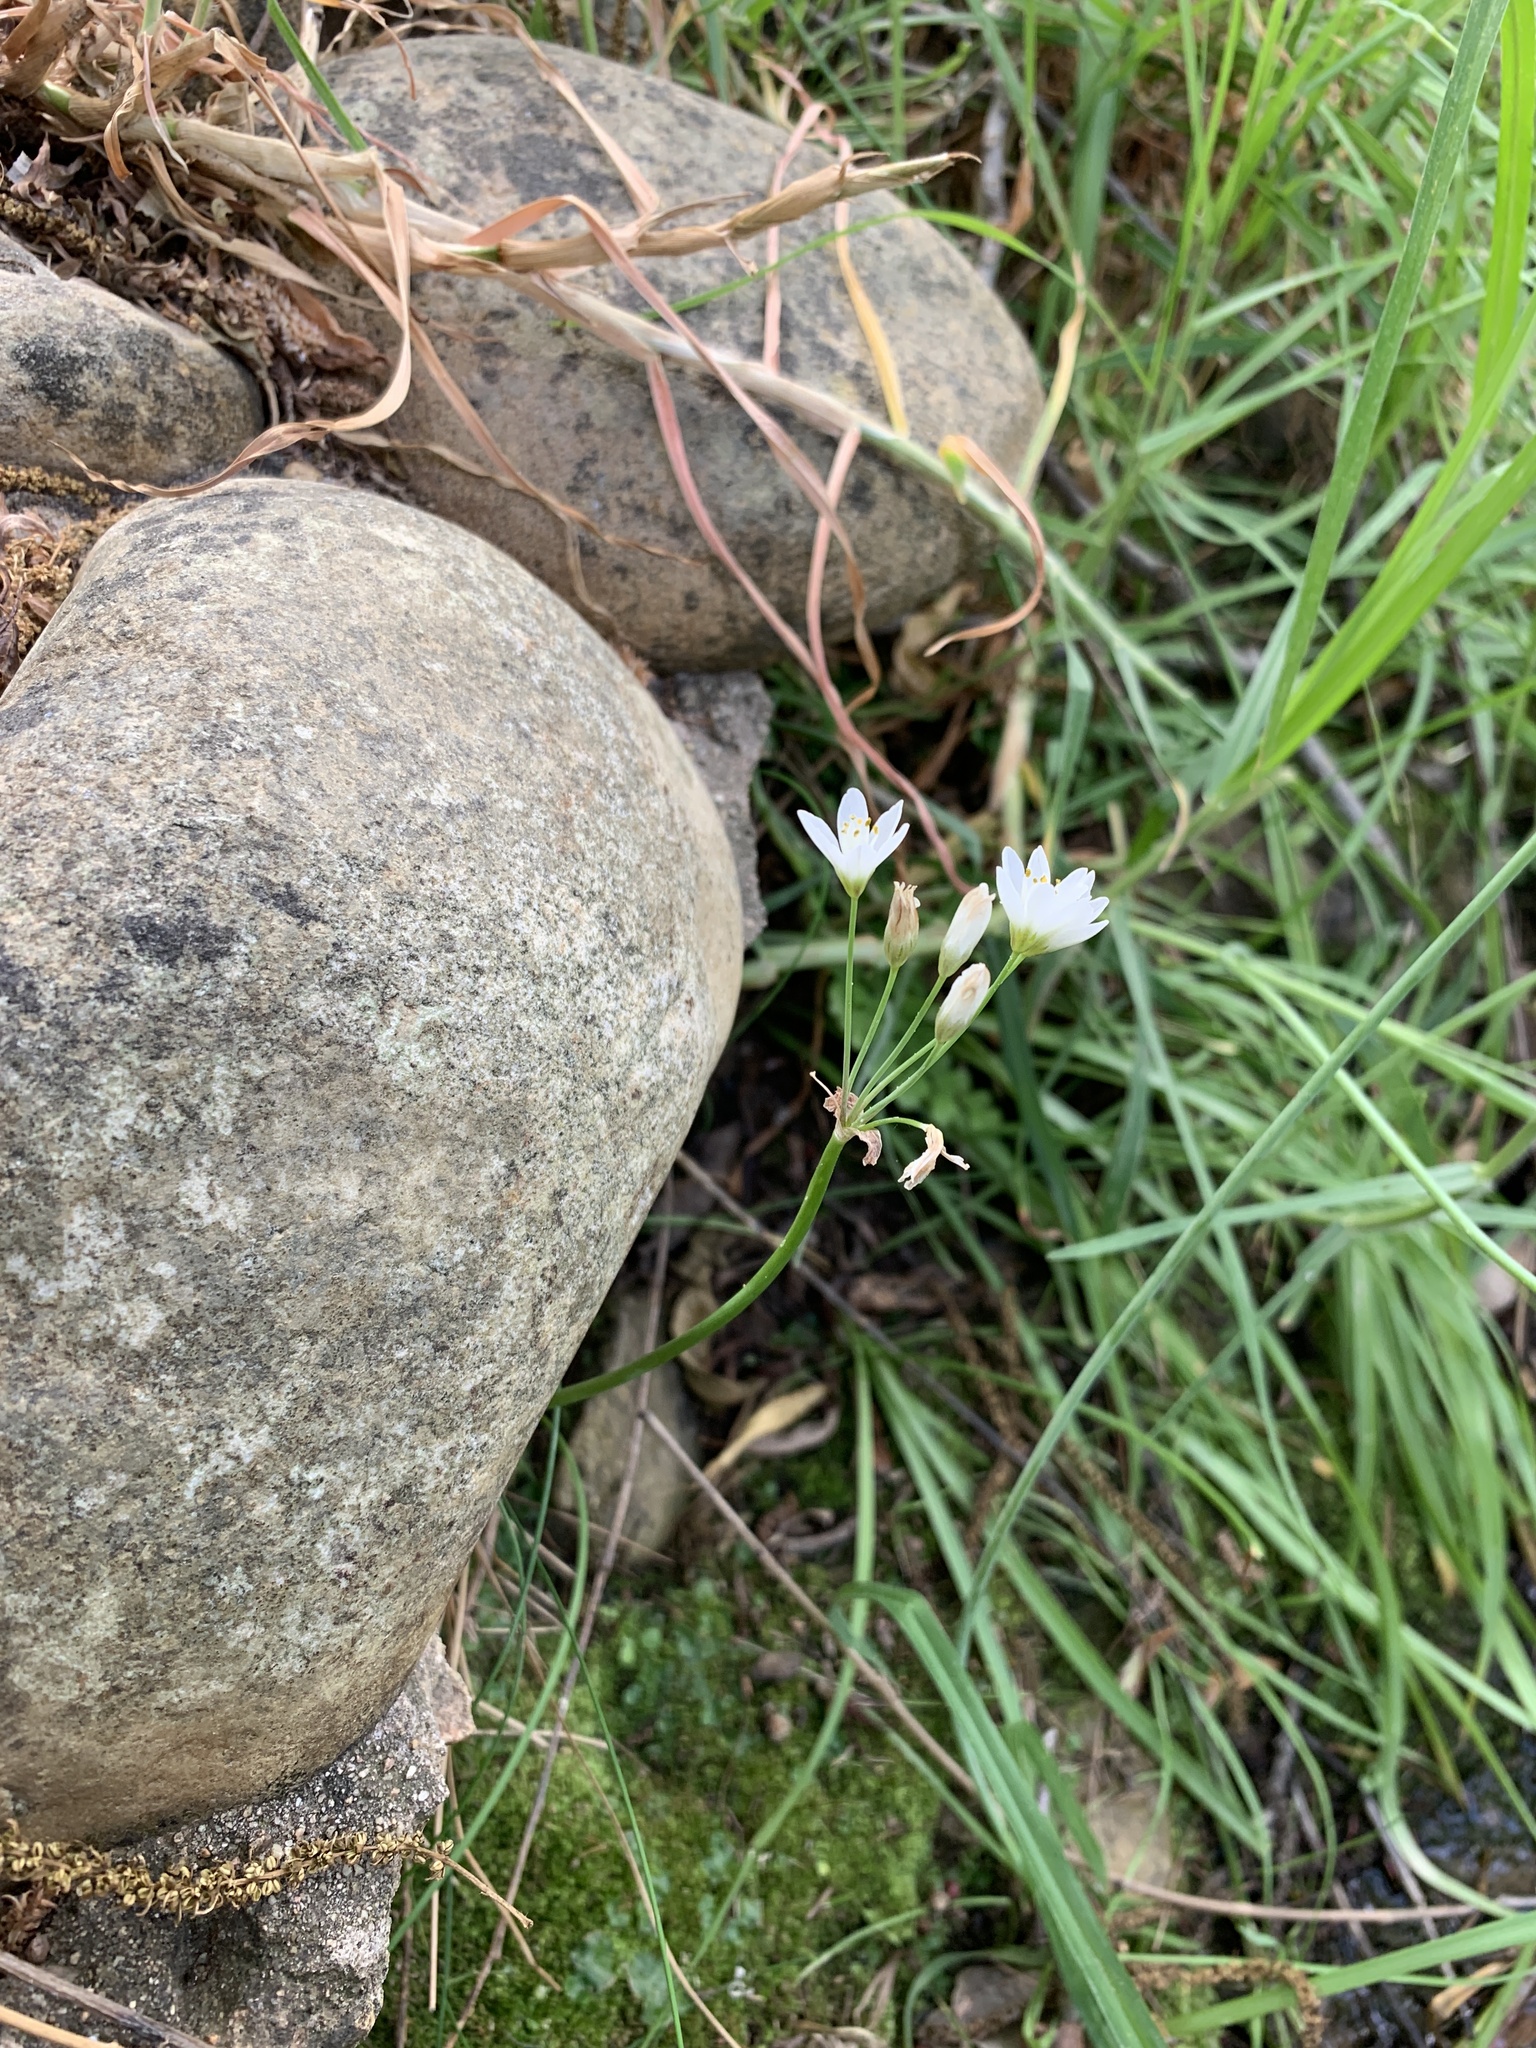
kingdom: Plantae
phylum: Tracheophyta
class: Liliopsida
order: Asparagales
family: Amaryllidaceae
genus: Nothoscordum
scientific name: Nothoscordum gracile
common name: Slender false garlic
